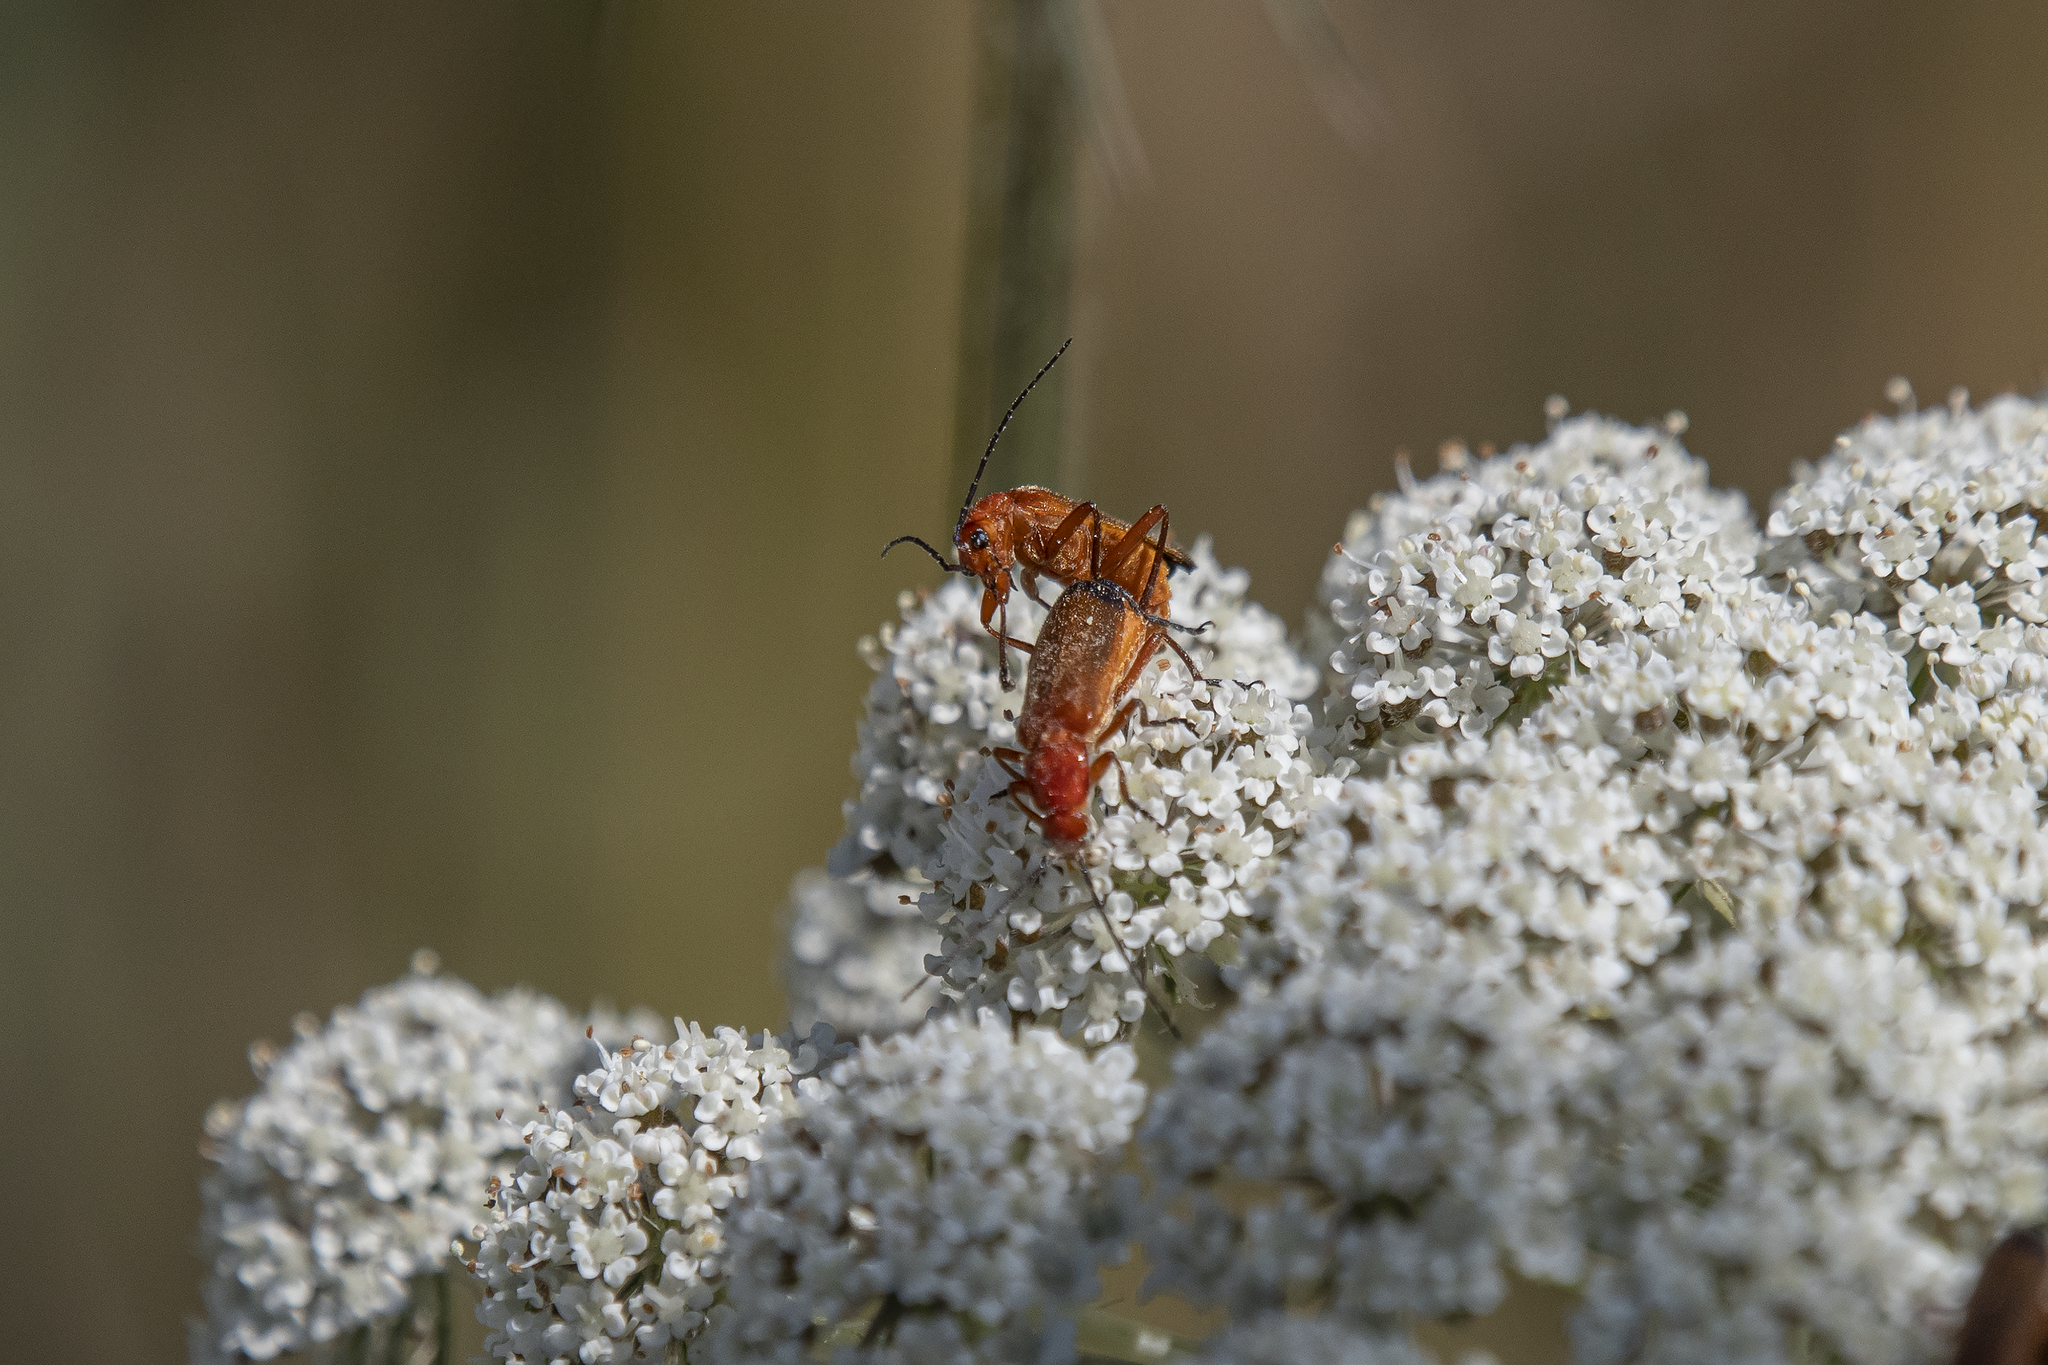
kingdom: Animalia
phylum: Arthropoda
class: Insecta
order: Coleoptera
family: Cantharidae
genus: Rhagonycha
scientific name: Rhagonycha fulva
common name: Common red soldier beetle
